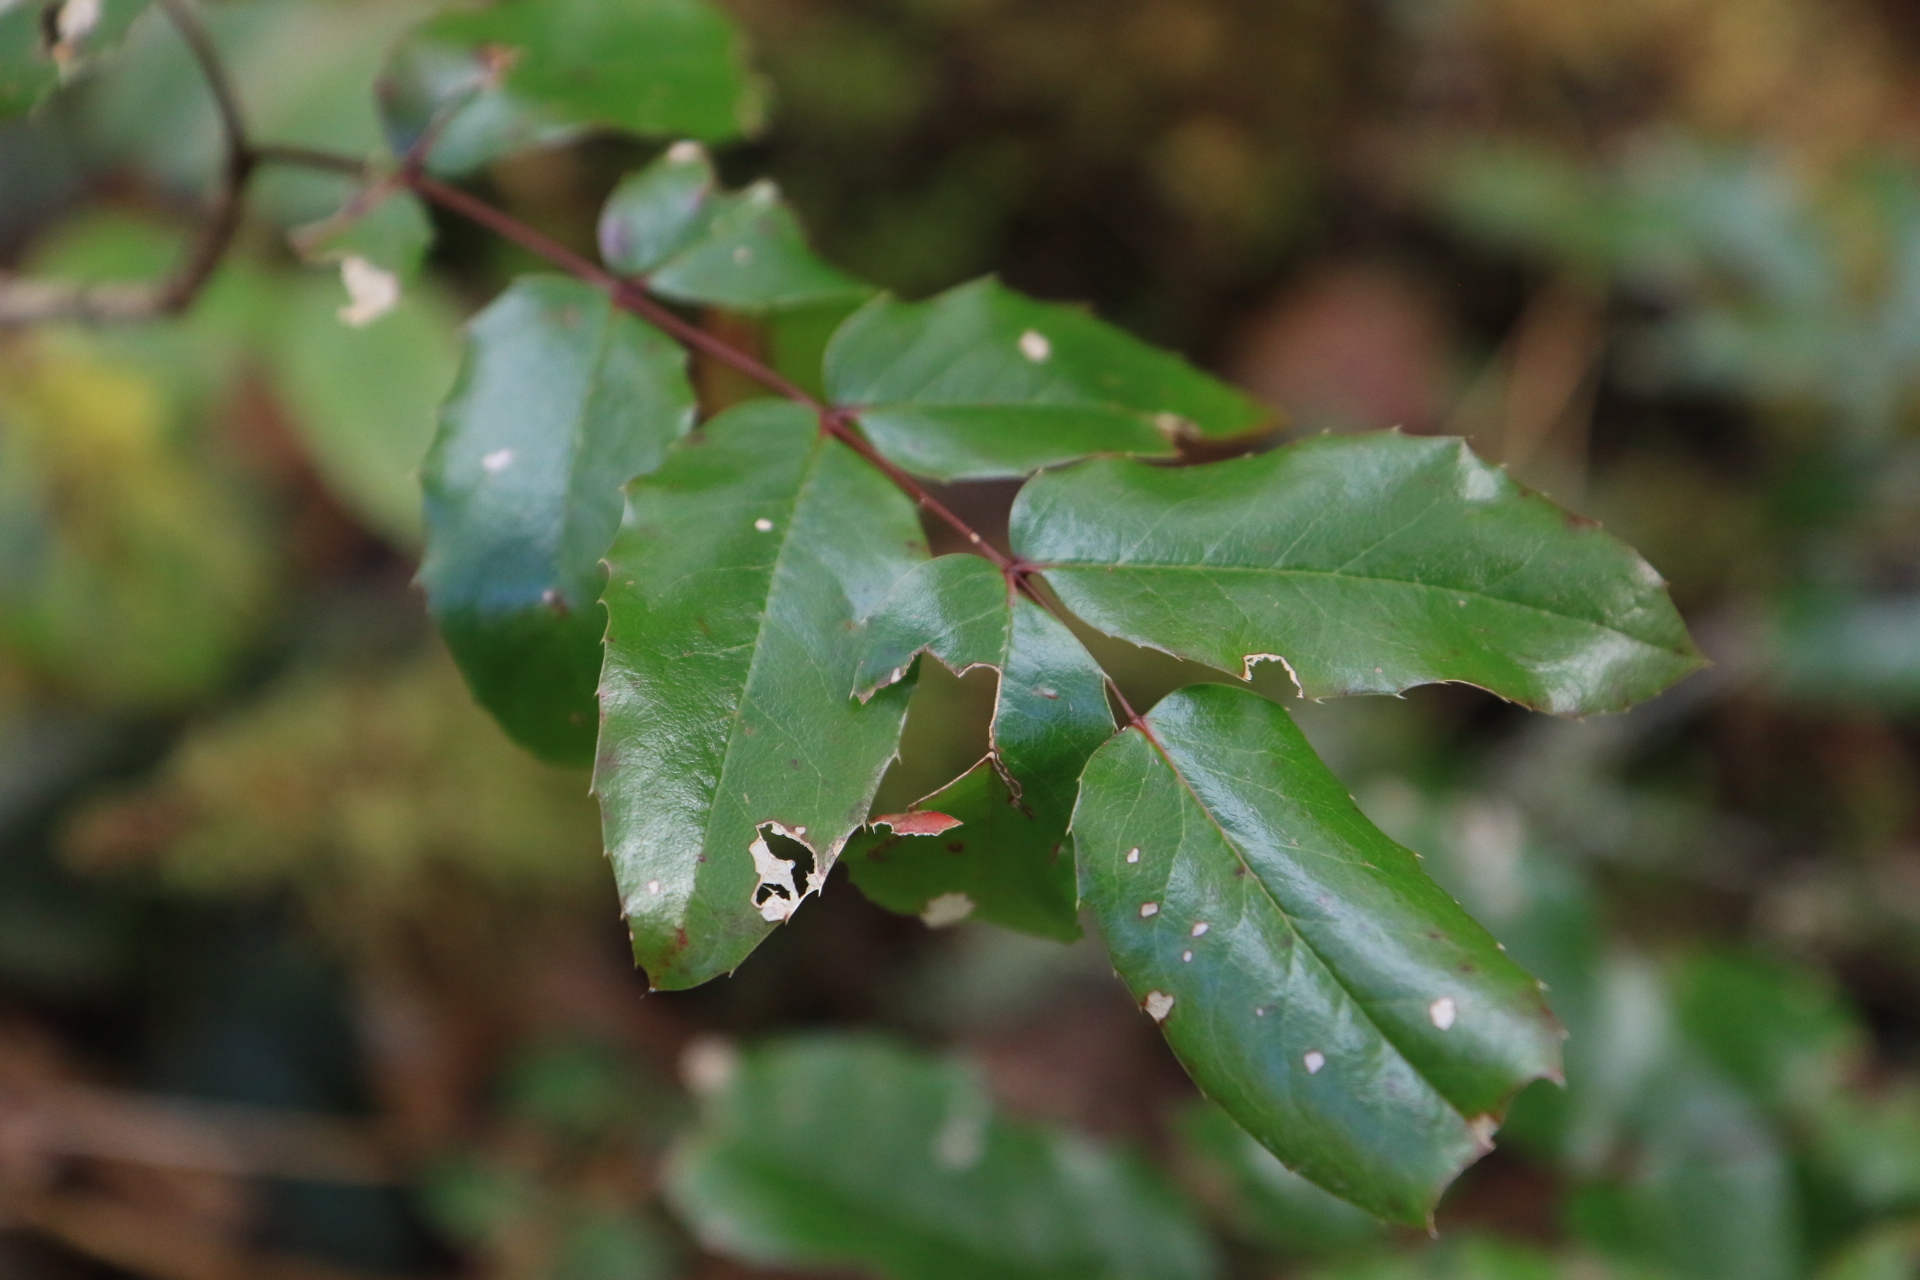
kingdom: Plantae
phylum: Tracheophyta
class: Magnoliopsida
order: Ranunculales
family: Berberidaceae
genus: Mahonia
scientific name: Mahonia aquifolium
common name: Oregon-grape
